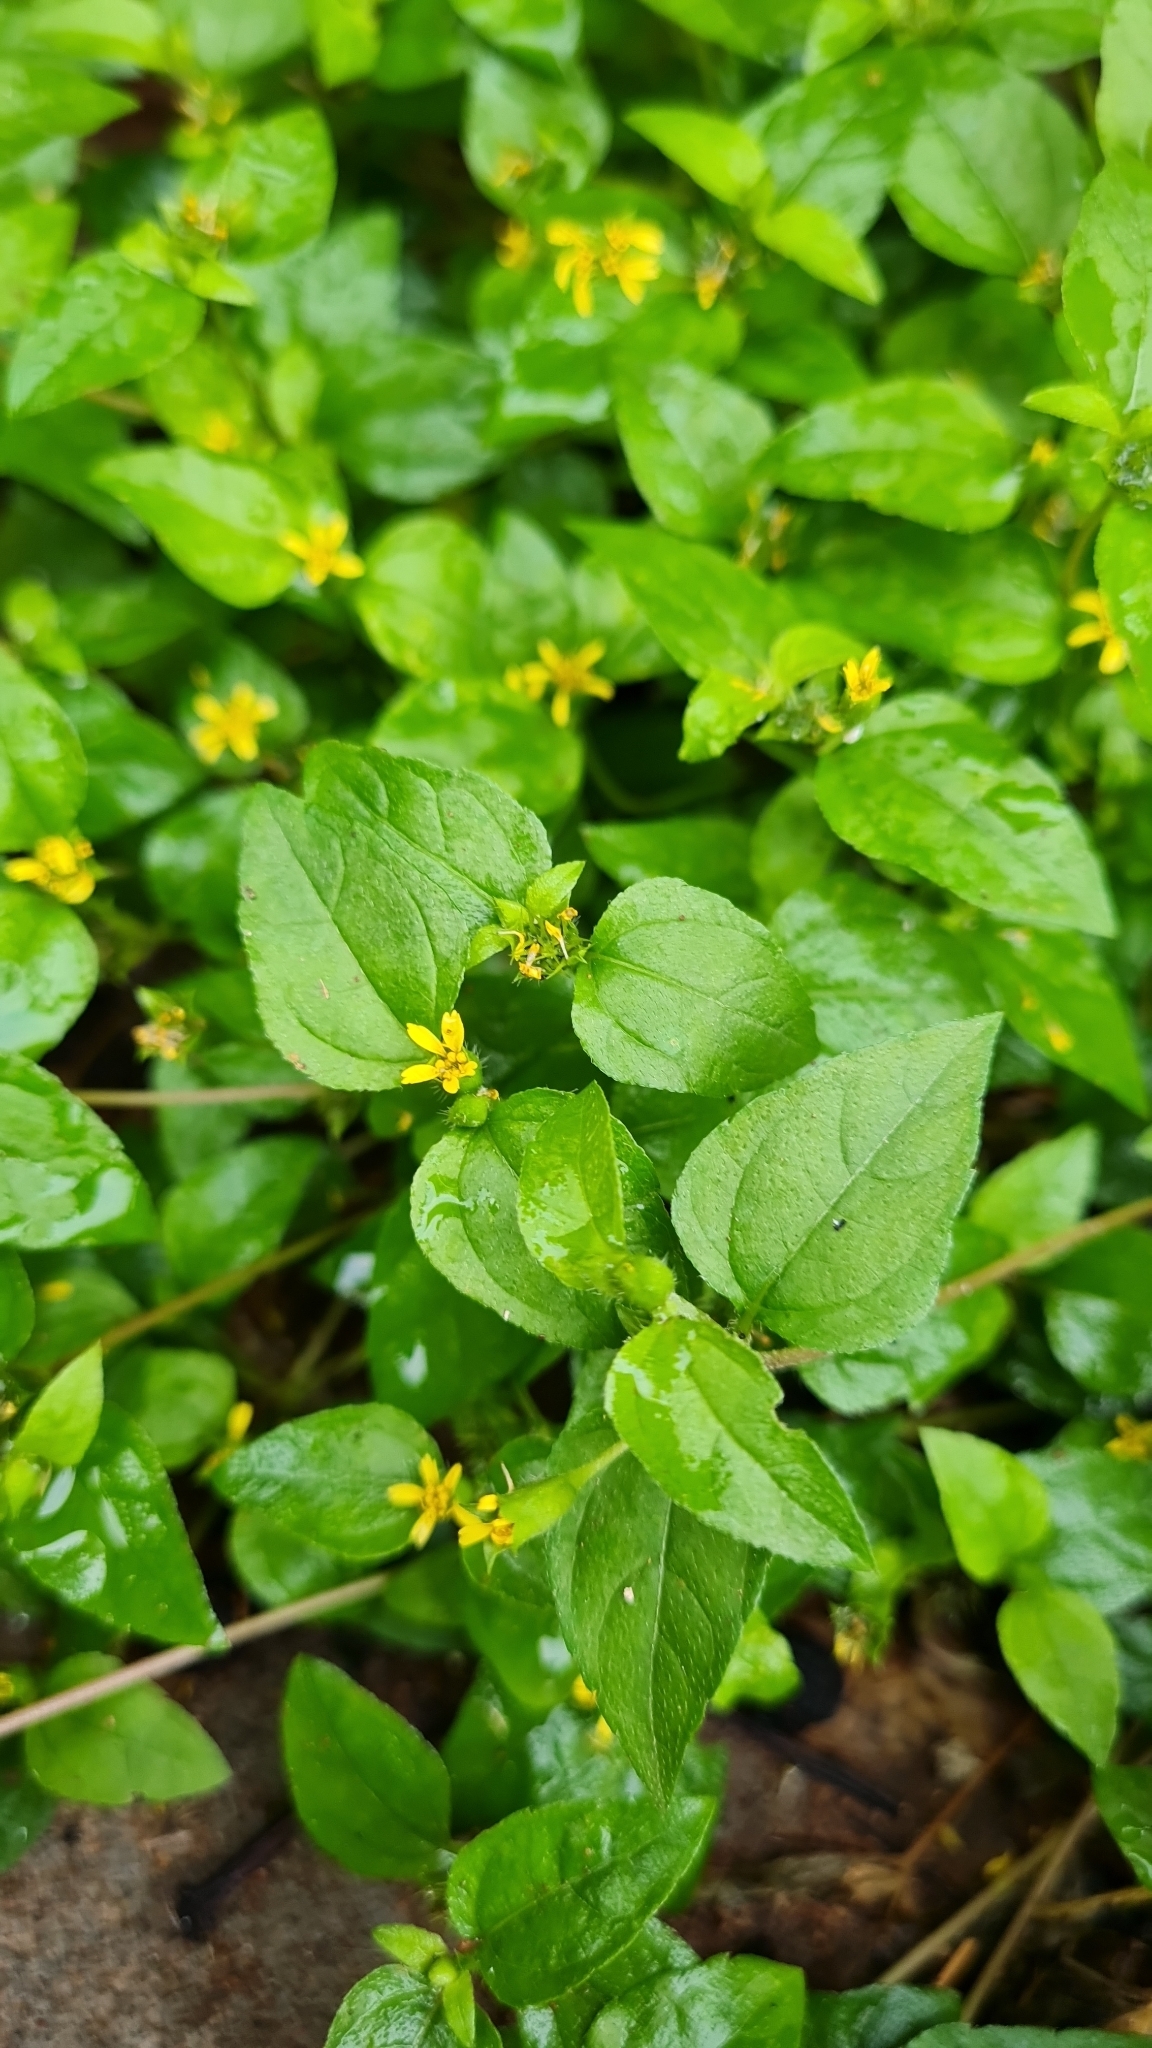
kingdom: Plantae
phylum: Tracheophyta
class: Magnoliopsida
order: Asterales
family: Asteraceae
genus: Calyptocarpus
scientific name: Calyptocarpus vialis
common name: Straggler daisy
